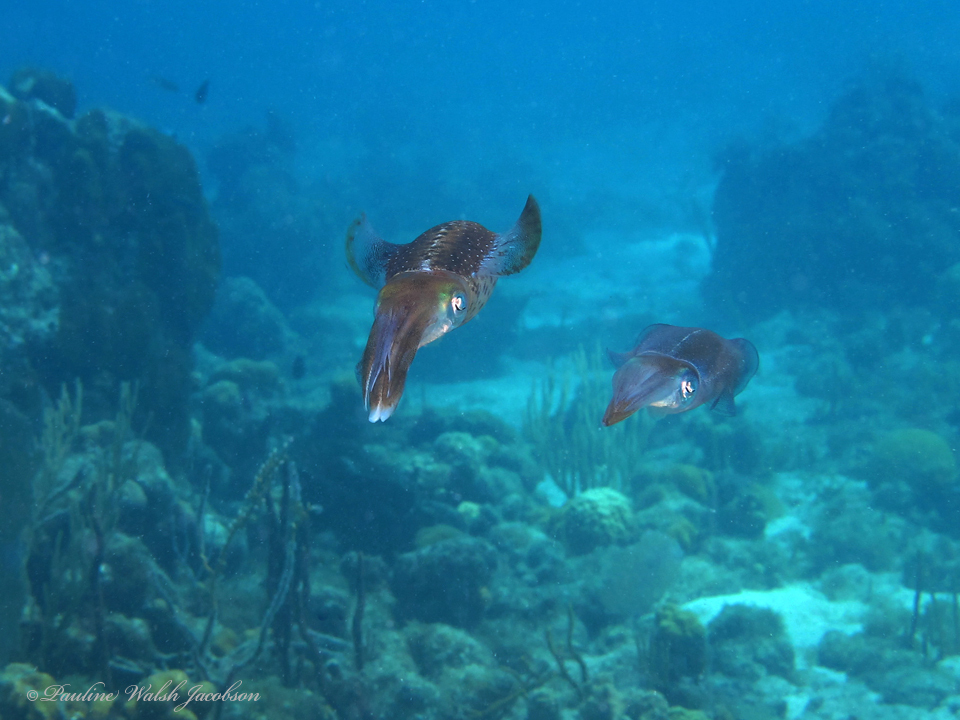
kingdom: Animalia
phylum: Mollusca
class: Cephalopoda
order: Myopsida
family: Loliginidae
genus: Sepioteuthis
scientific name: Sepioteuthis sepioidea
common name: Caribbean reef squid
